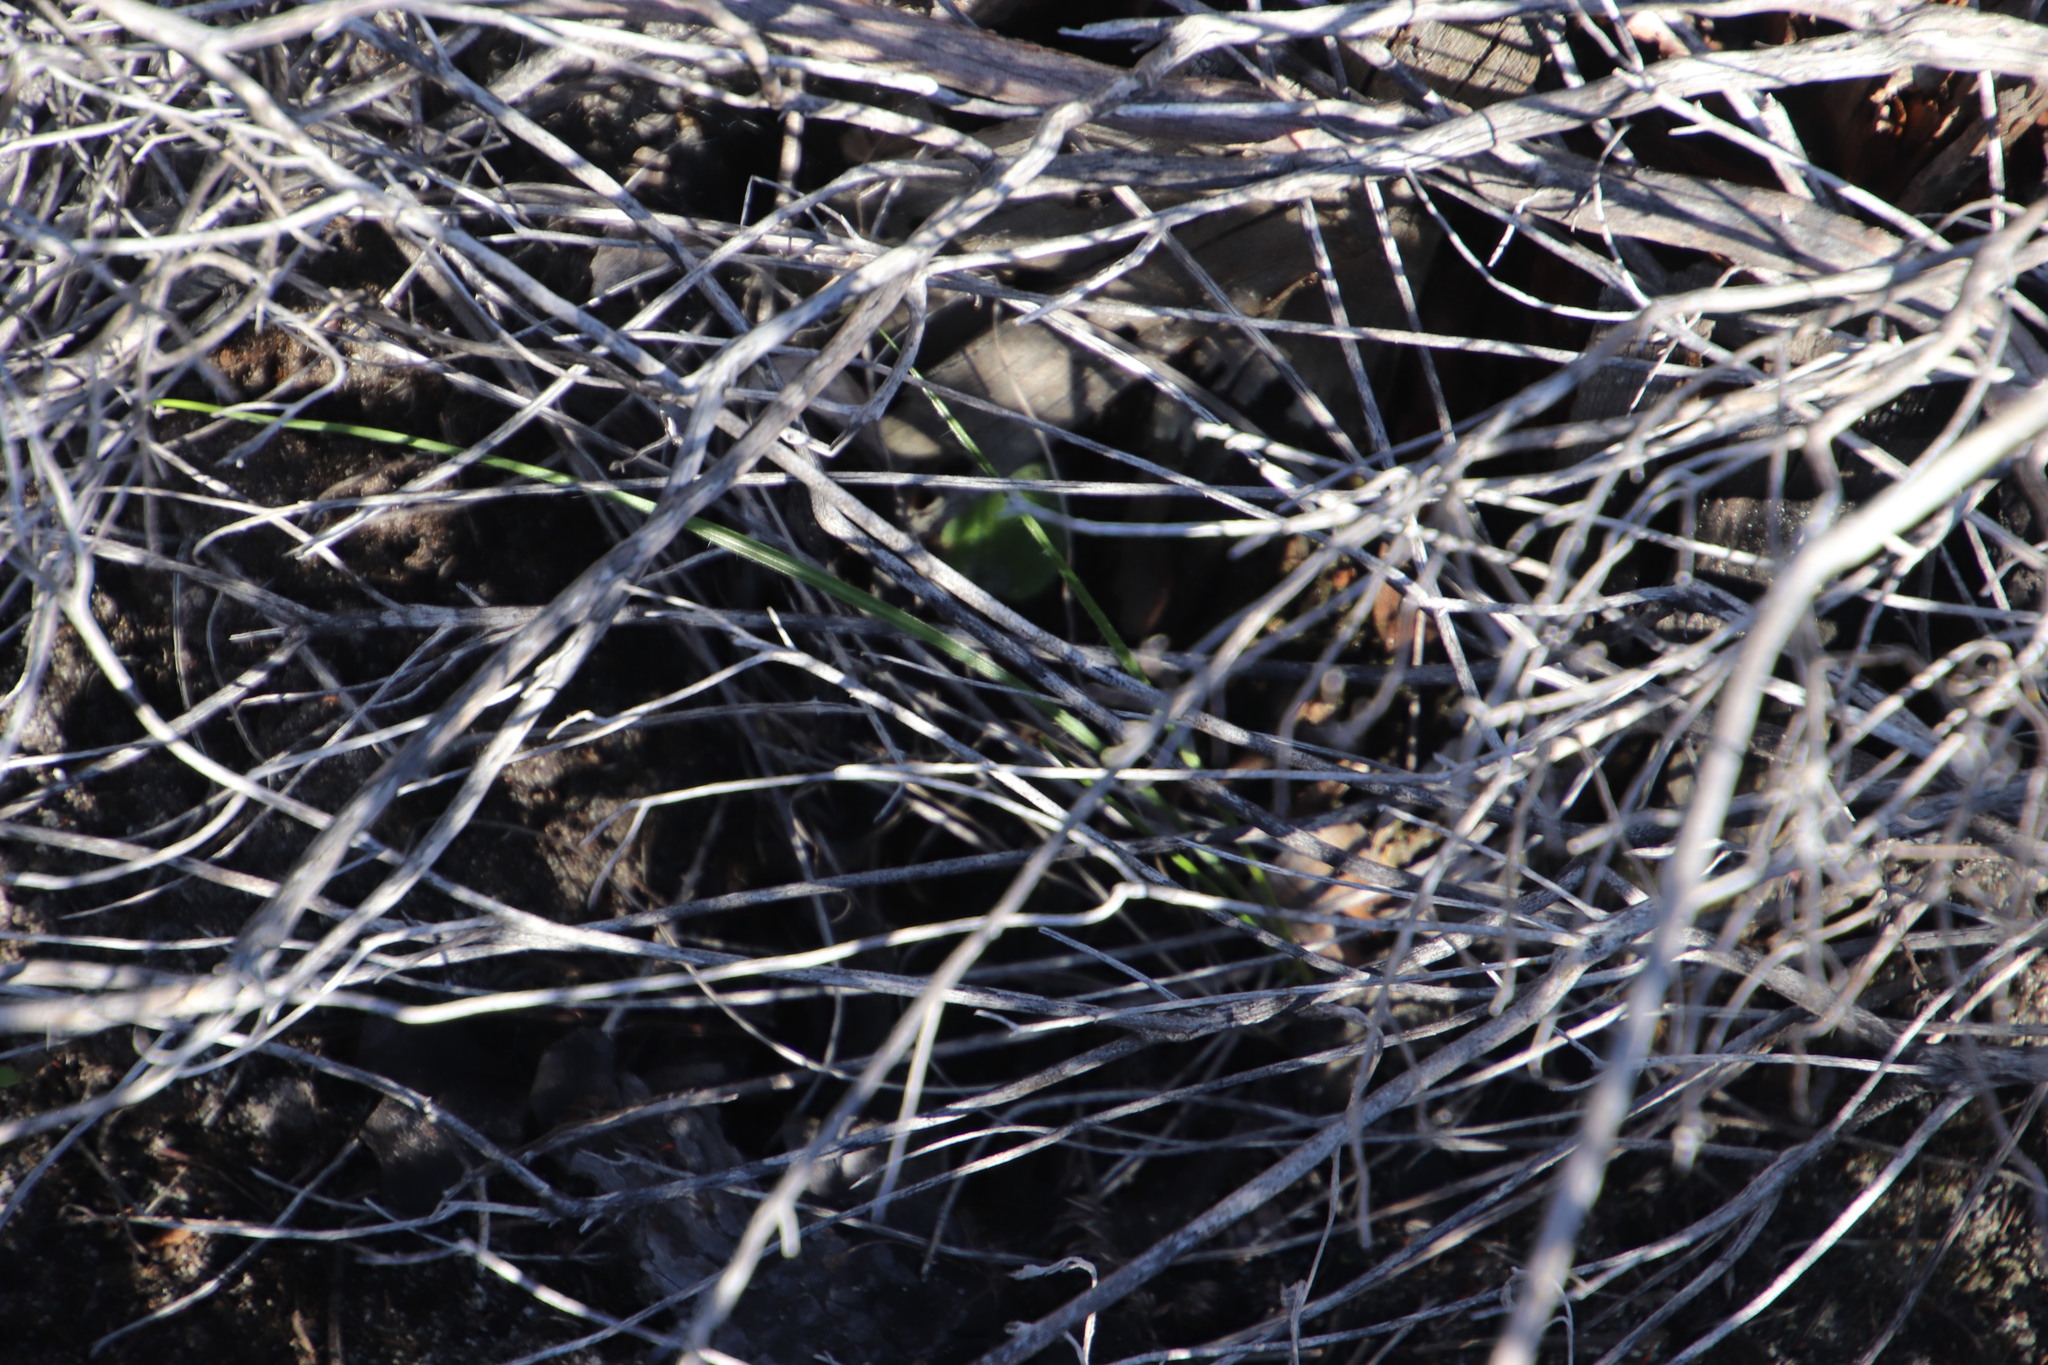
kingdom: Plantae
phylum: Tracheophyta
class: Liliopsida
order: Asparagales
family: Asphodelaceae
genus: Bulbine
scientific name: Bulbine favosa
